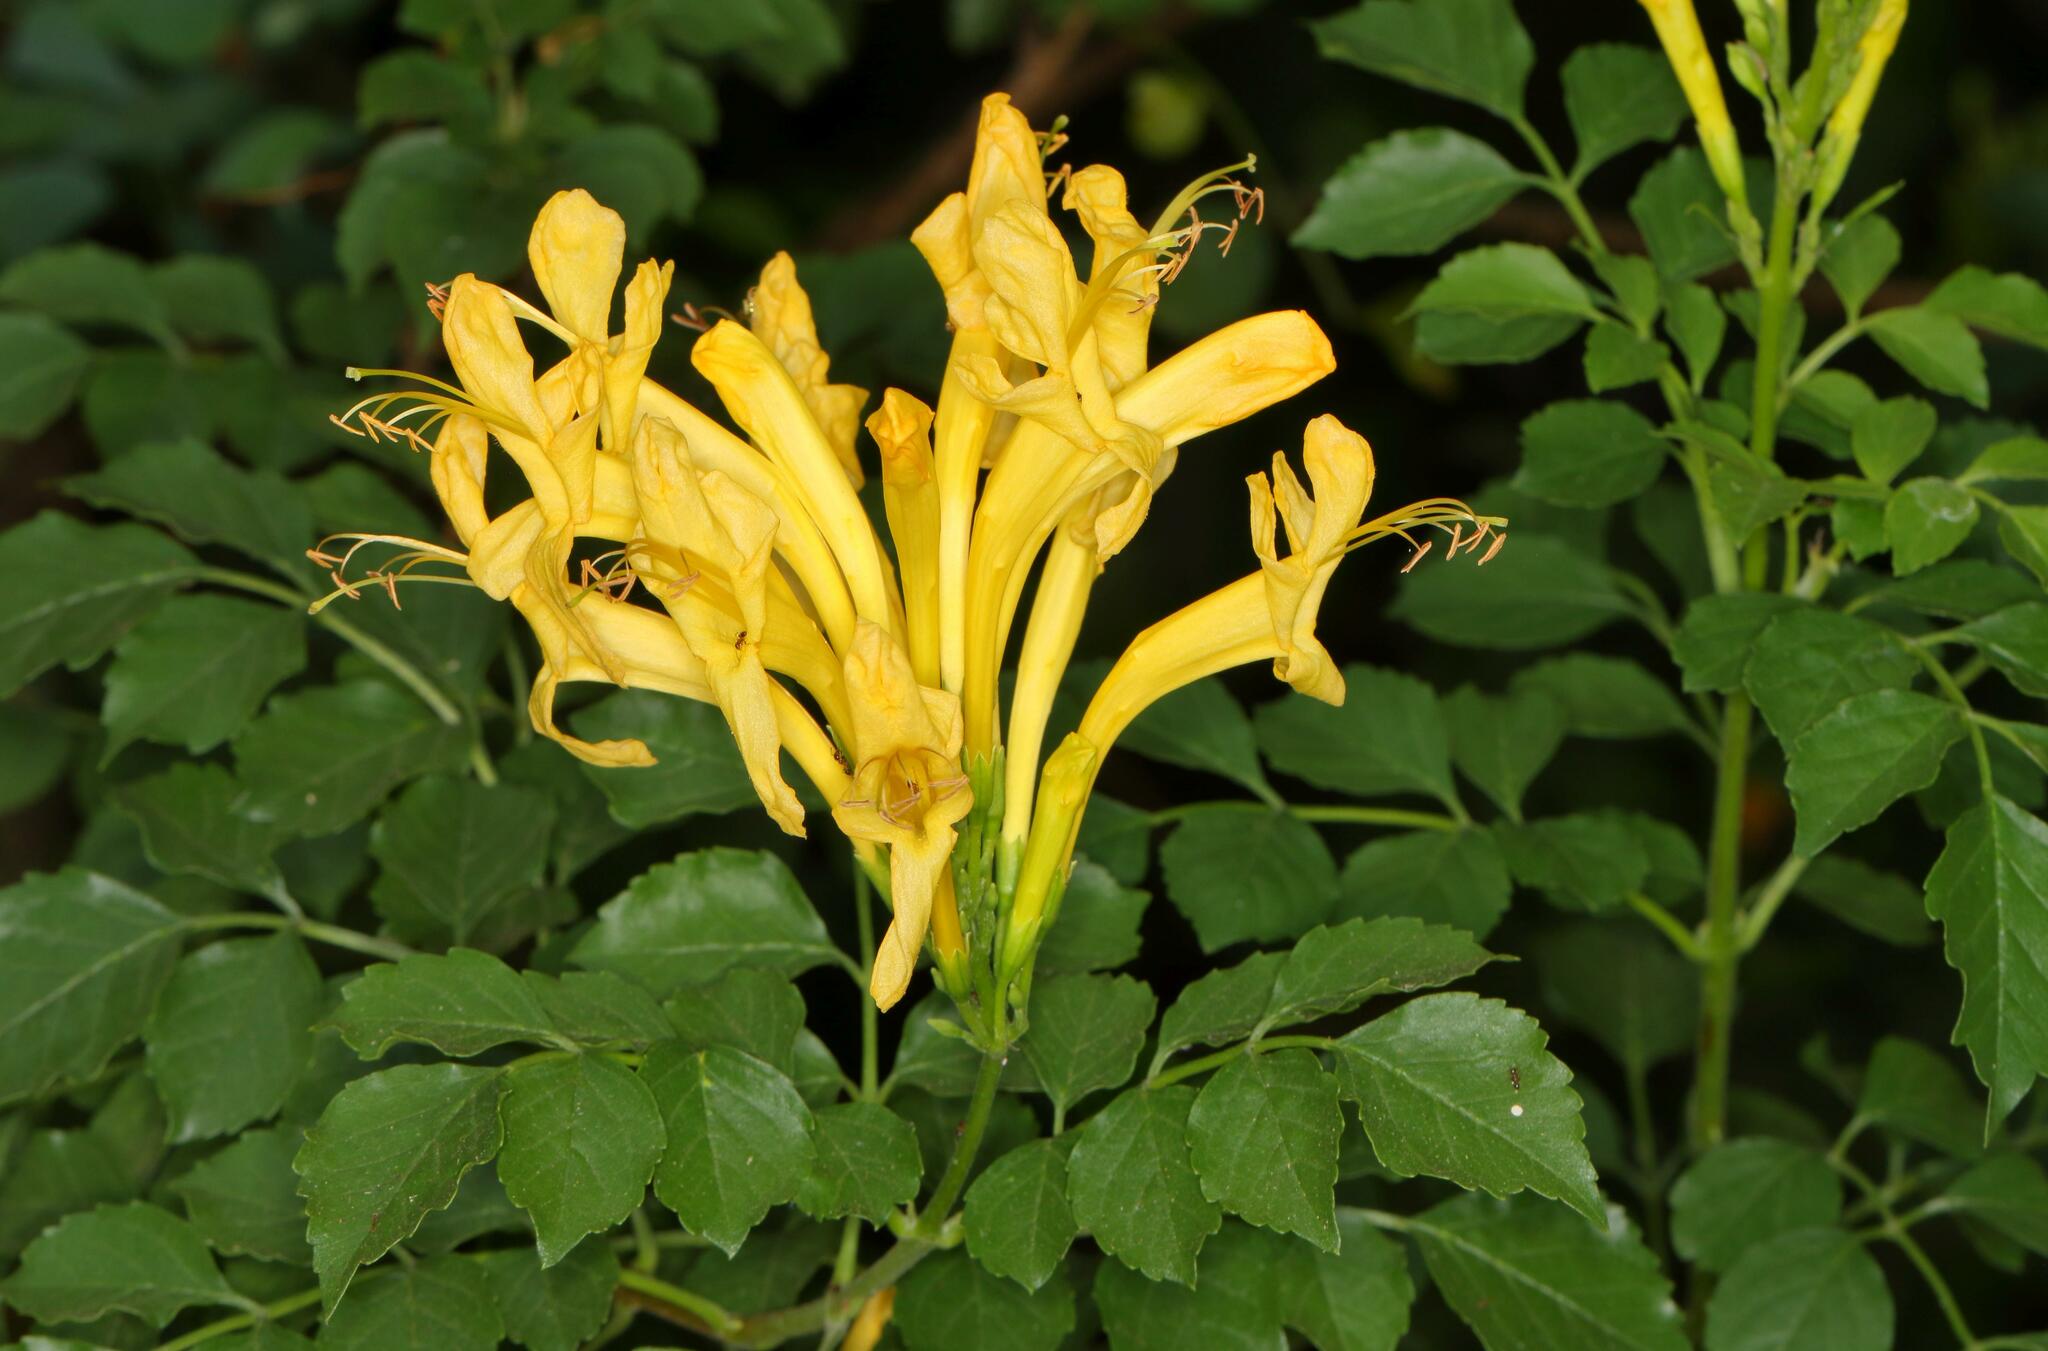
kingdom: Plantae
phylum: Tracheophyta
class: Magnoliopsida
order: Lamiales
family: Bignoniaceae
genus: Tecomaria
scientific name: Tecomaria capensis
